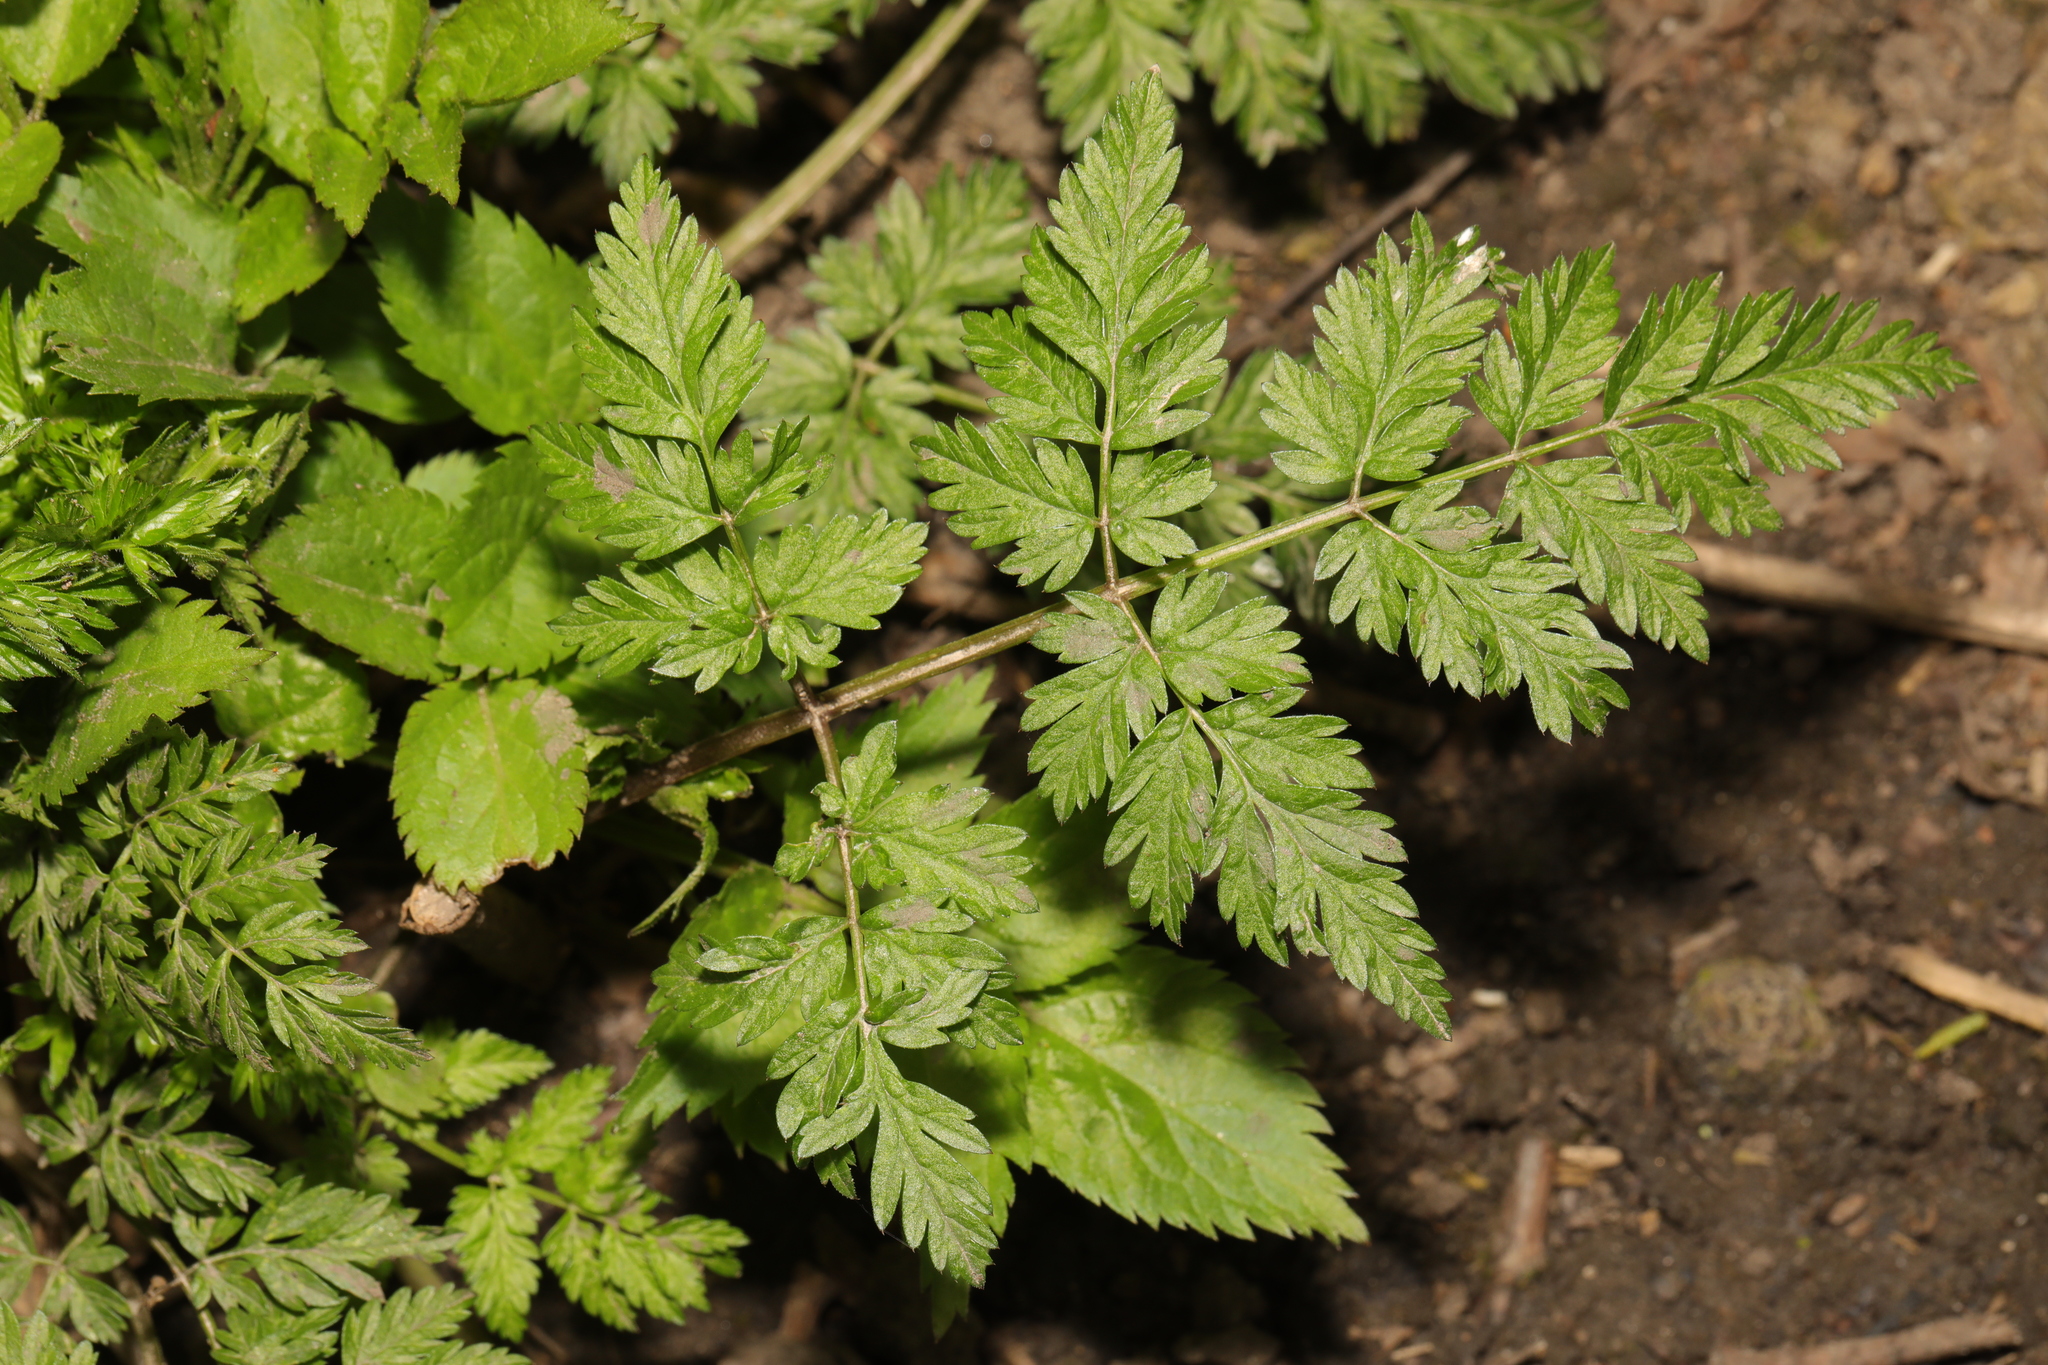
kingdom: Plantae
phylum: Tracheophyta
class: Magnoliopsida
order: Apiales
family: Apiaceae
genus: Anthriscus
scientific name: Anthriscus sylvestris
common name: Cow parsley
